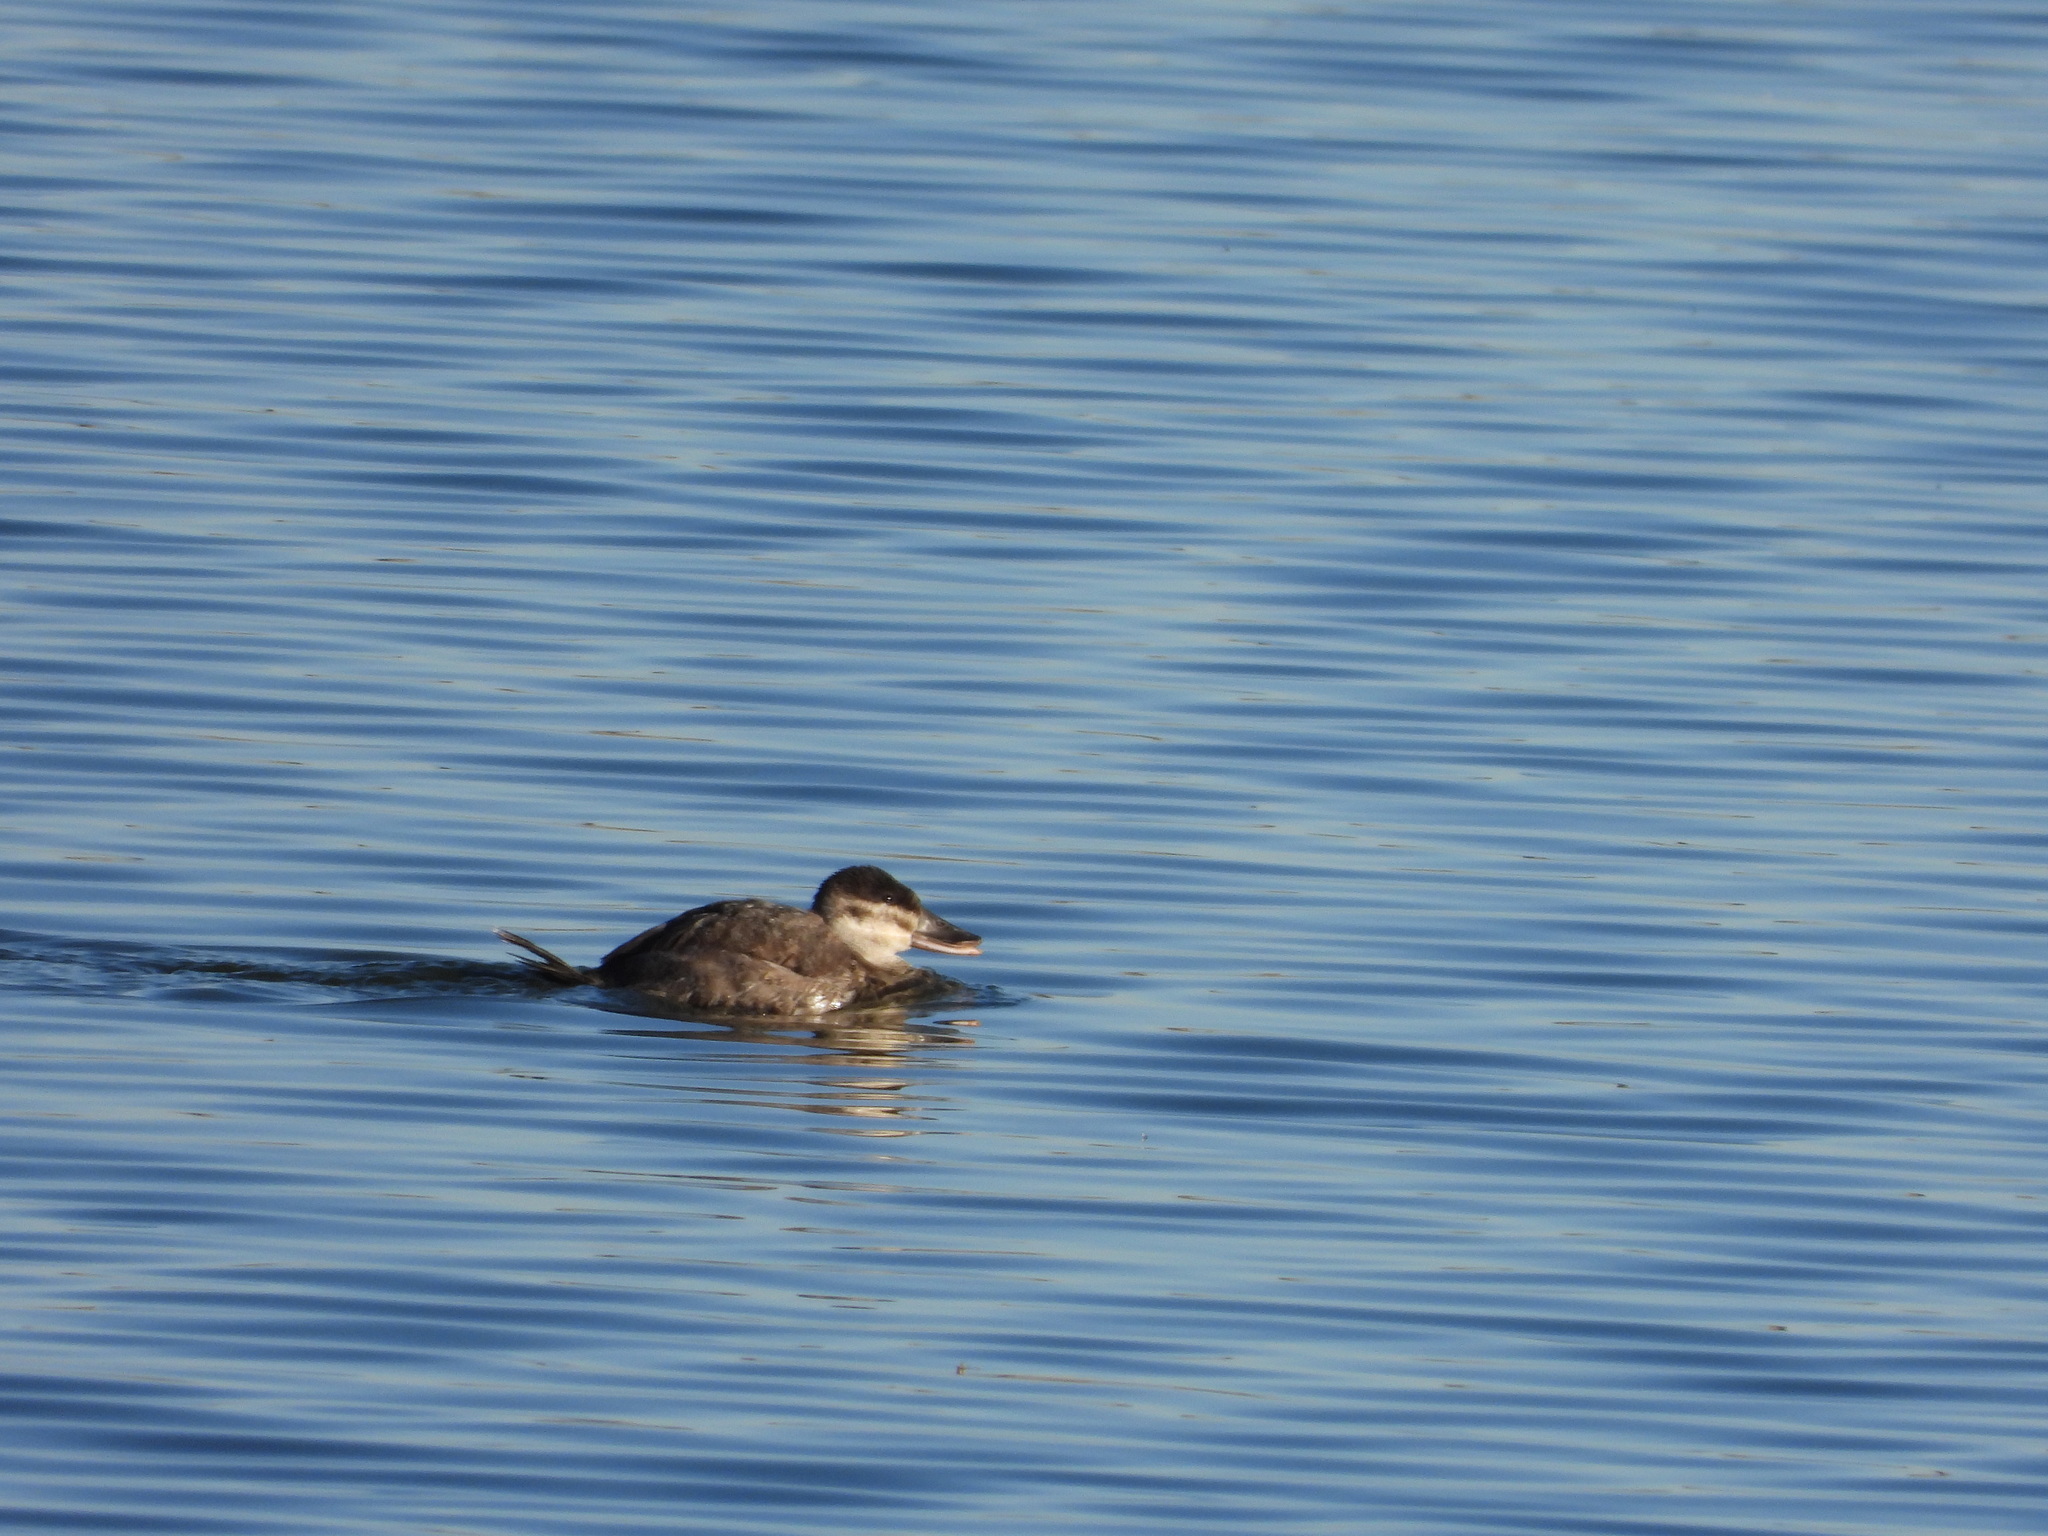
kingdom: Animalia
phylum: Chordata
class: Aves
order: Anseriformes
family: Anatidae
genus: Oxyura
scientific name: Oxyura jamaicensis
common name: Ruddy duck
